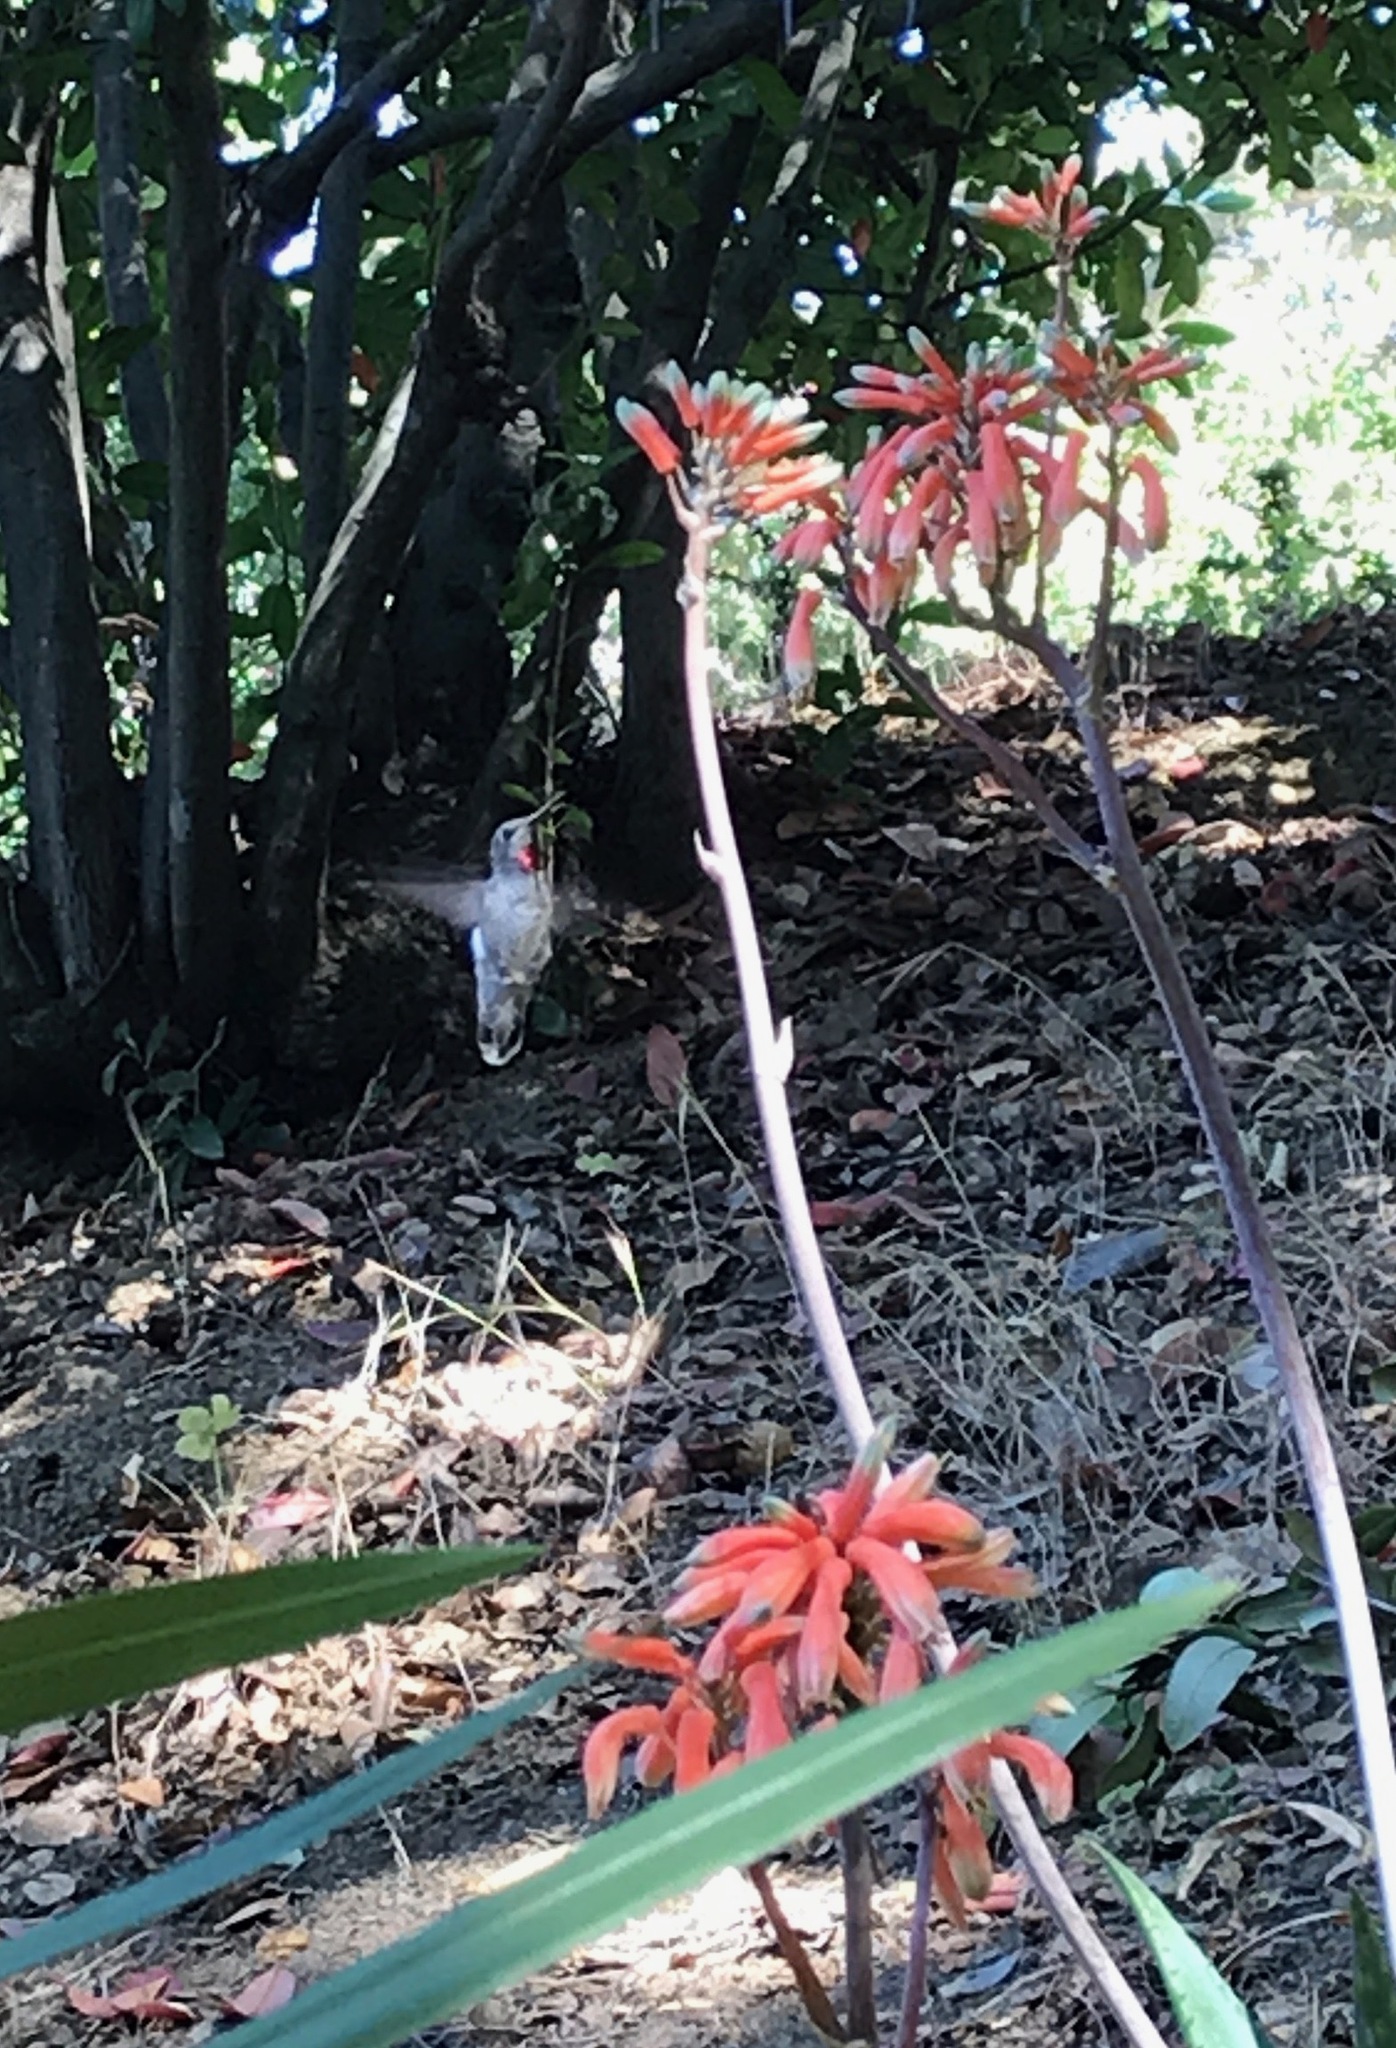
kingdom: Animalia
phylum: Chordata
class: Aves
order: Apodiformes
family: Trochilidae
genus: Calypte
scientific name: Calypte anna
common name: Anna's hummingbird
